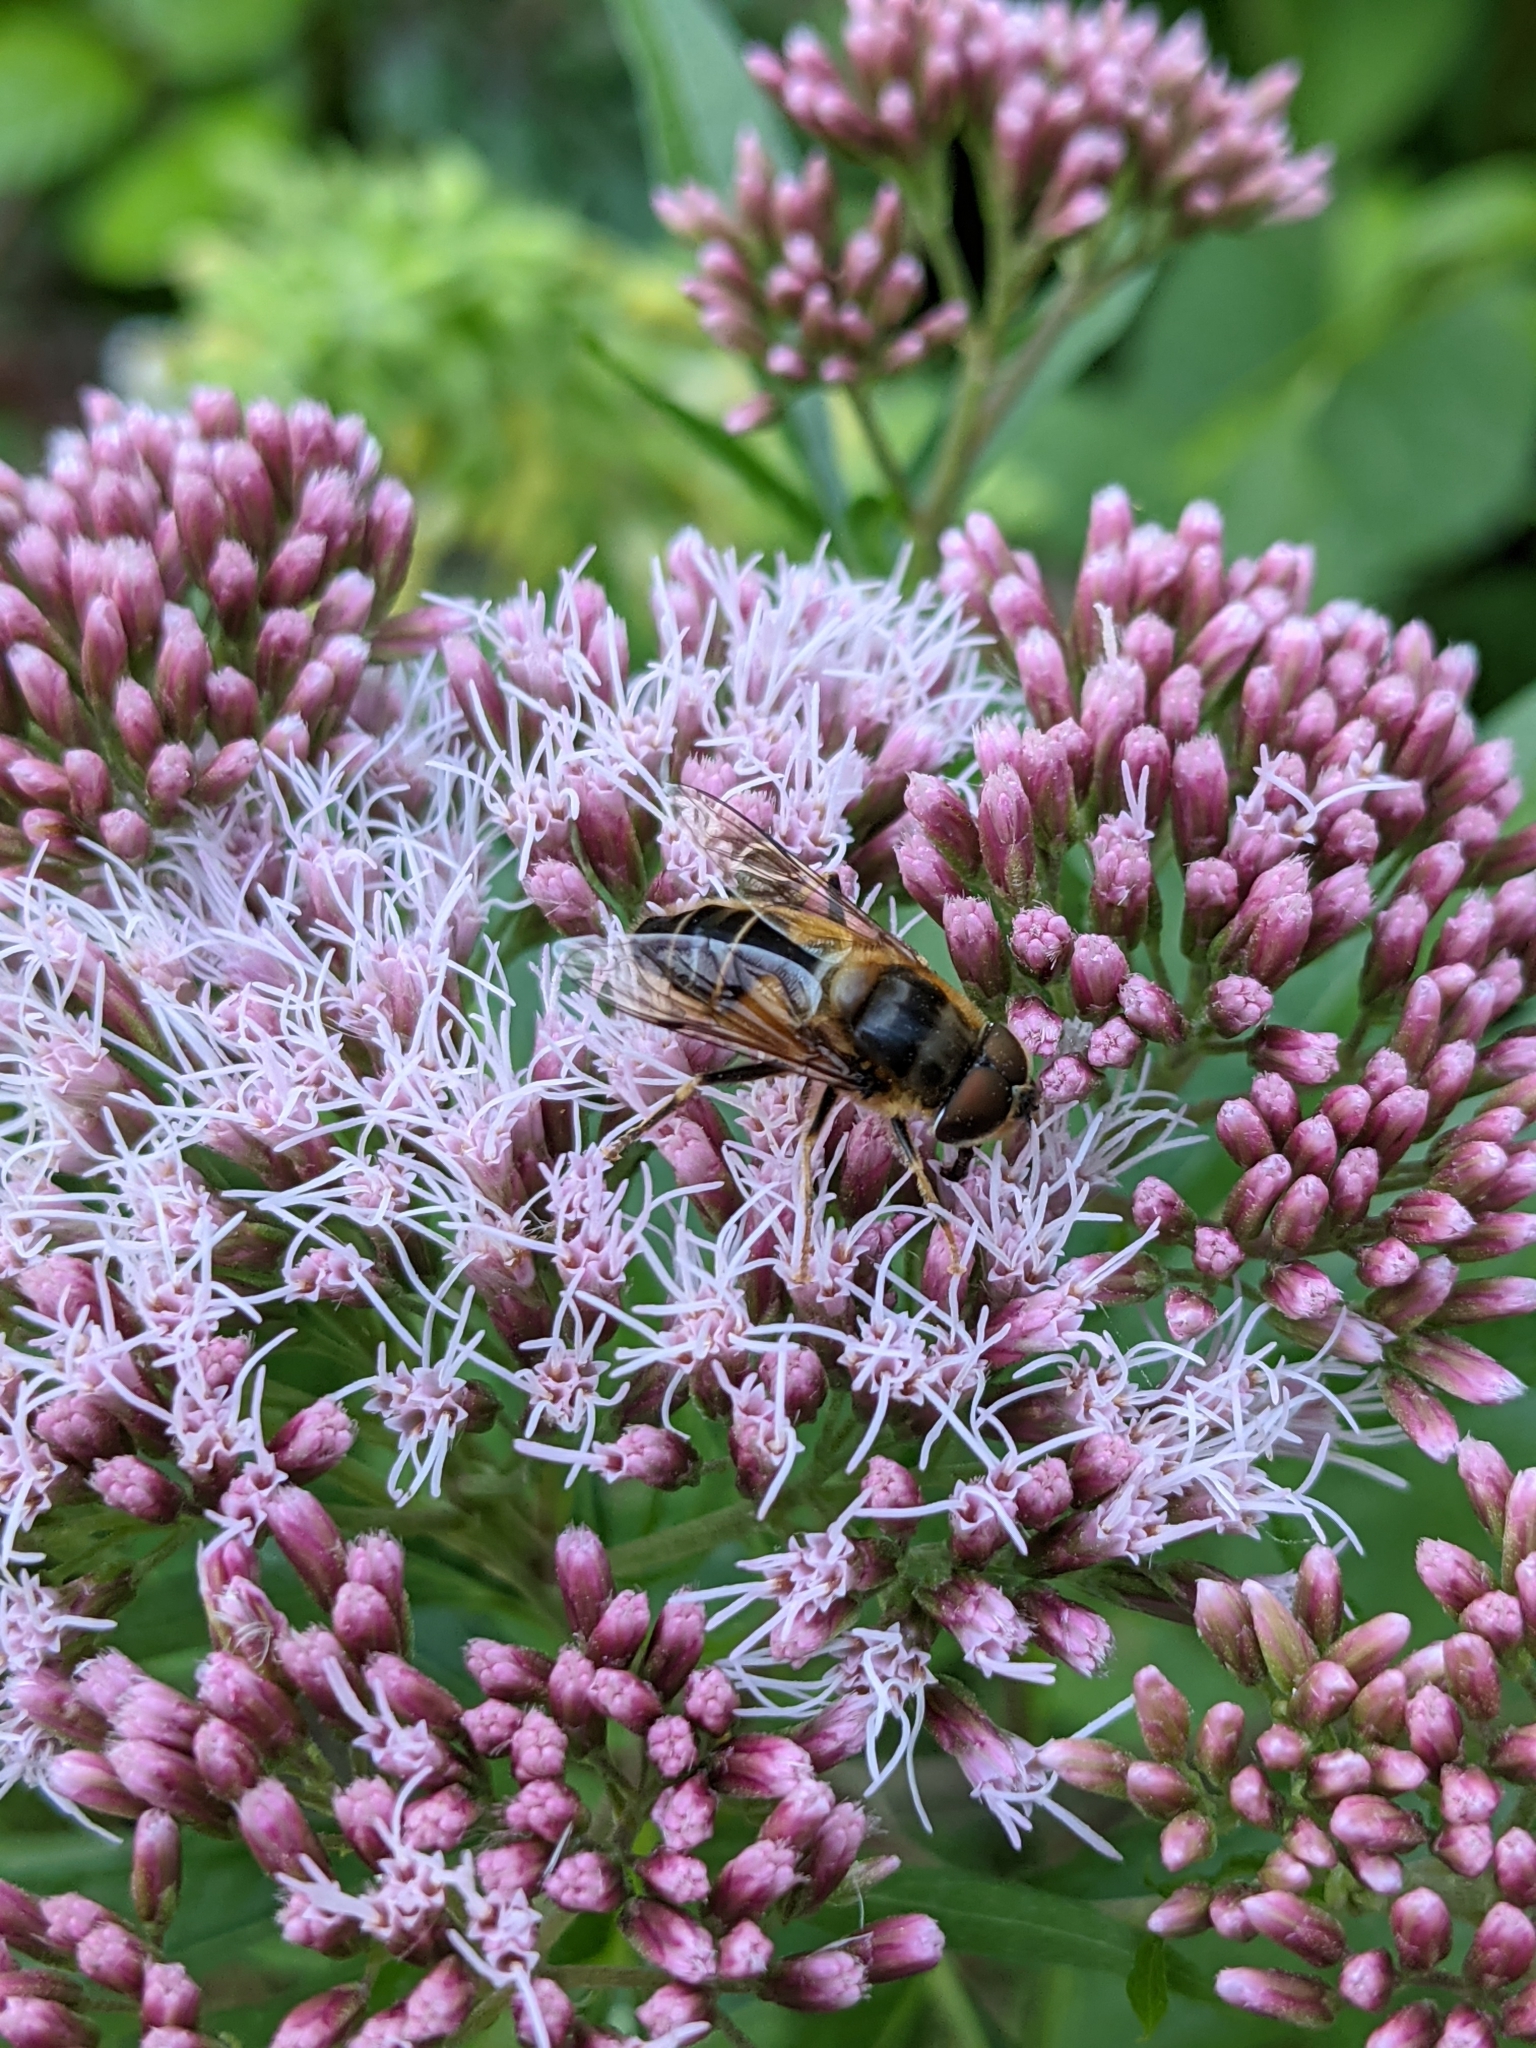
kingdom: Animalia
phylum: Arthropoda
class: Insecta
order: Diptera
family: Syrphidae
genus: Eristalis
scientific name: Eristalis pertinax
